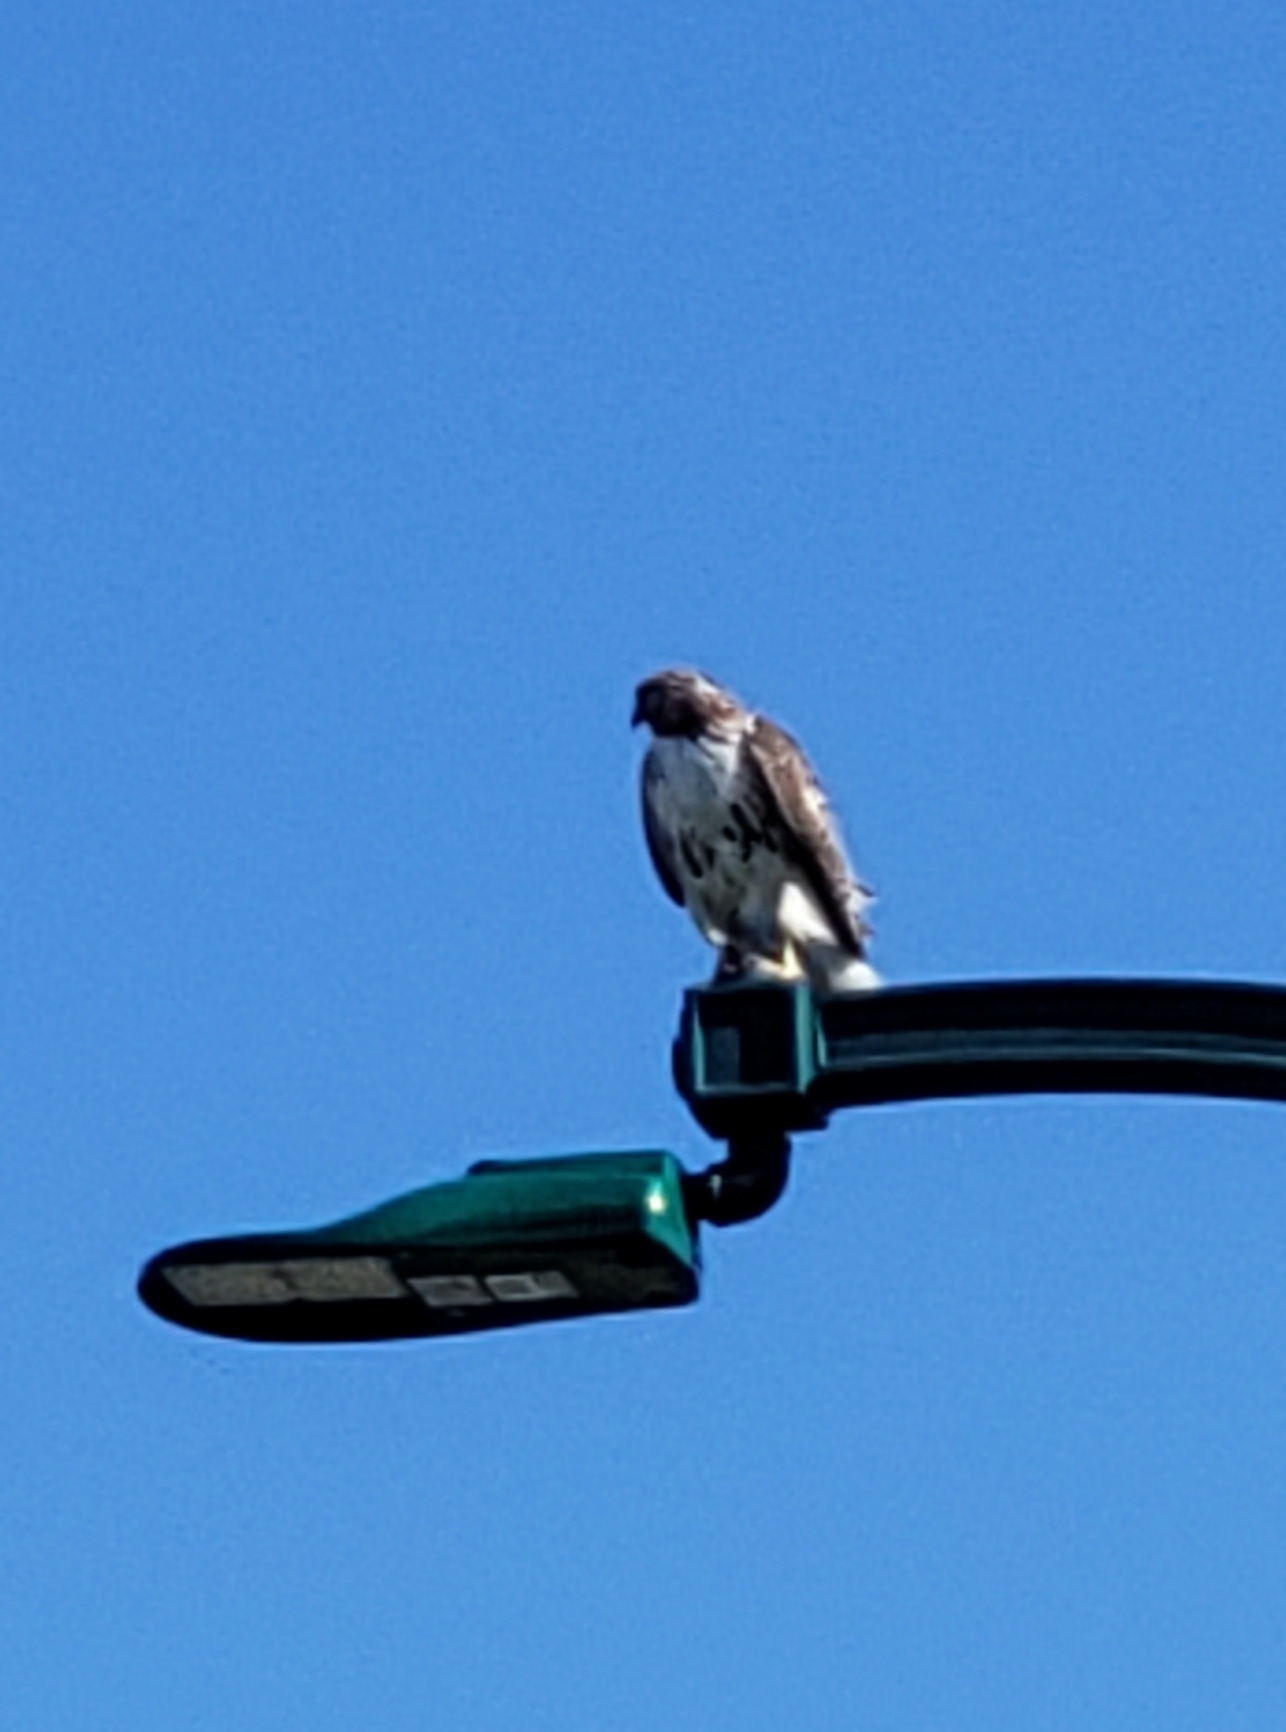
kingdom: Animalia
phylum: Chordata
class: Aves
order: Accipitriformes
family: Accipitridae
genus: Buteo
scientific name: Buteo jamaicensis
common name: Red-tailed hawk
